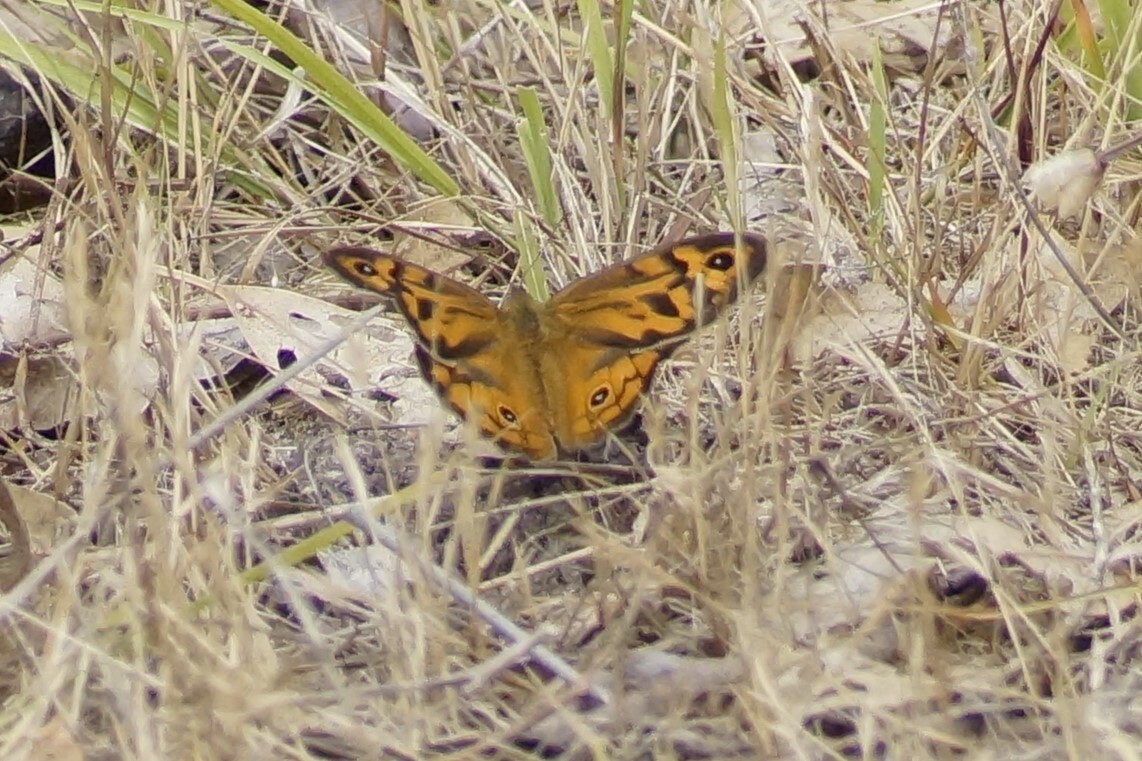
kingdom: Animalia
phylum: Arthropoda
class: Insecta
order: Lepidoptera
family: Nymphalidae
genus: Heteronympha
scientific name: Heteronympha merope
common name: Common brown
